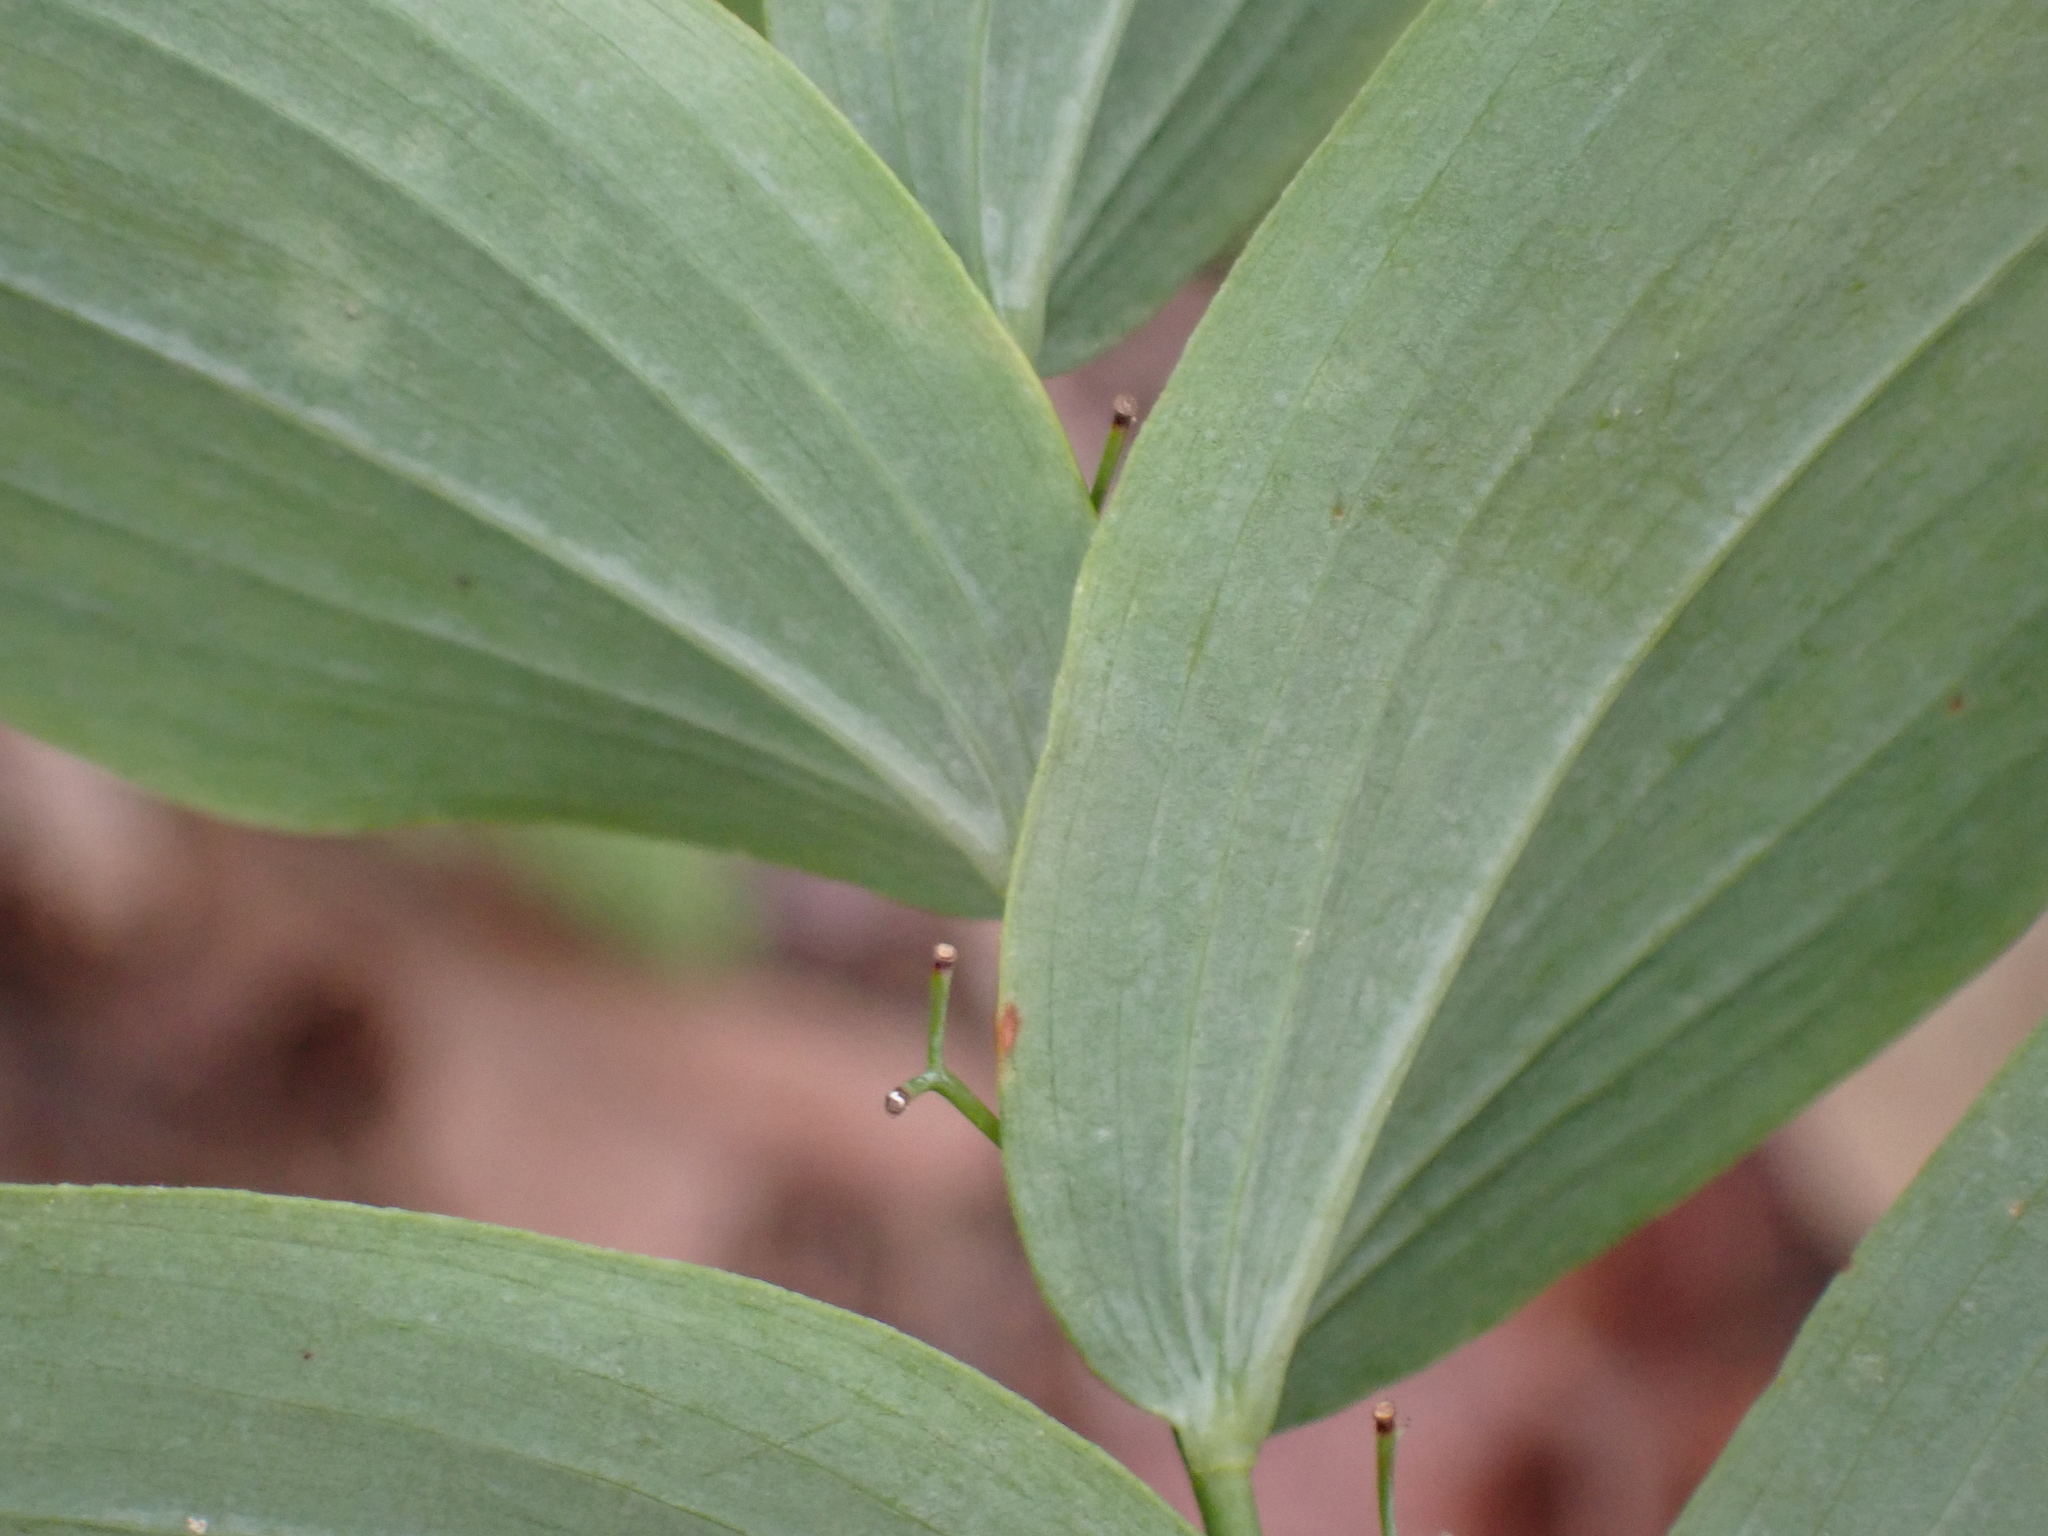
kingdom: Plantae
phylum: Tracheophyta
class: Liliopsida
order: Asparagales
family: Asparagaceae
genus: Polygonatum
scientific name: Polygonatum biflorum
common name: American solomon's-seal
